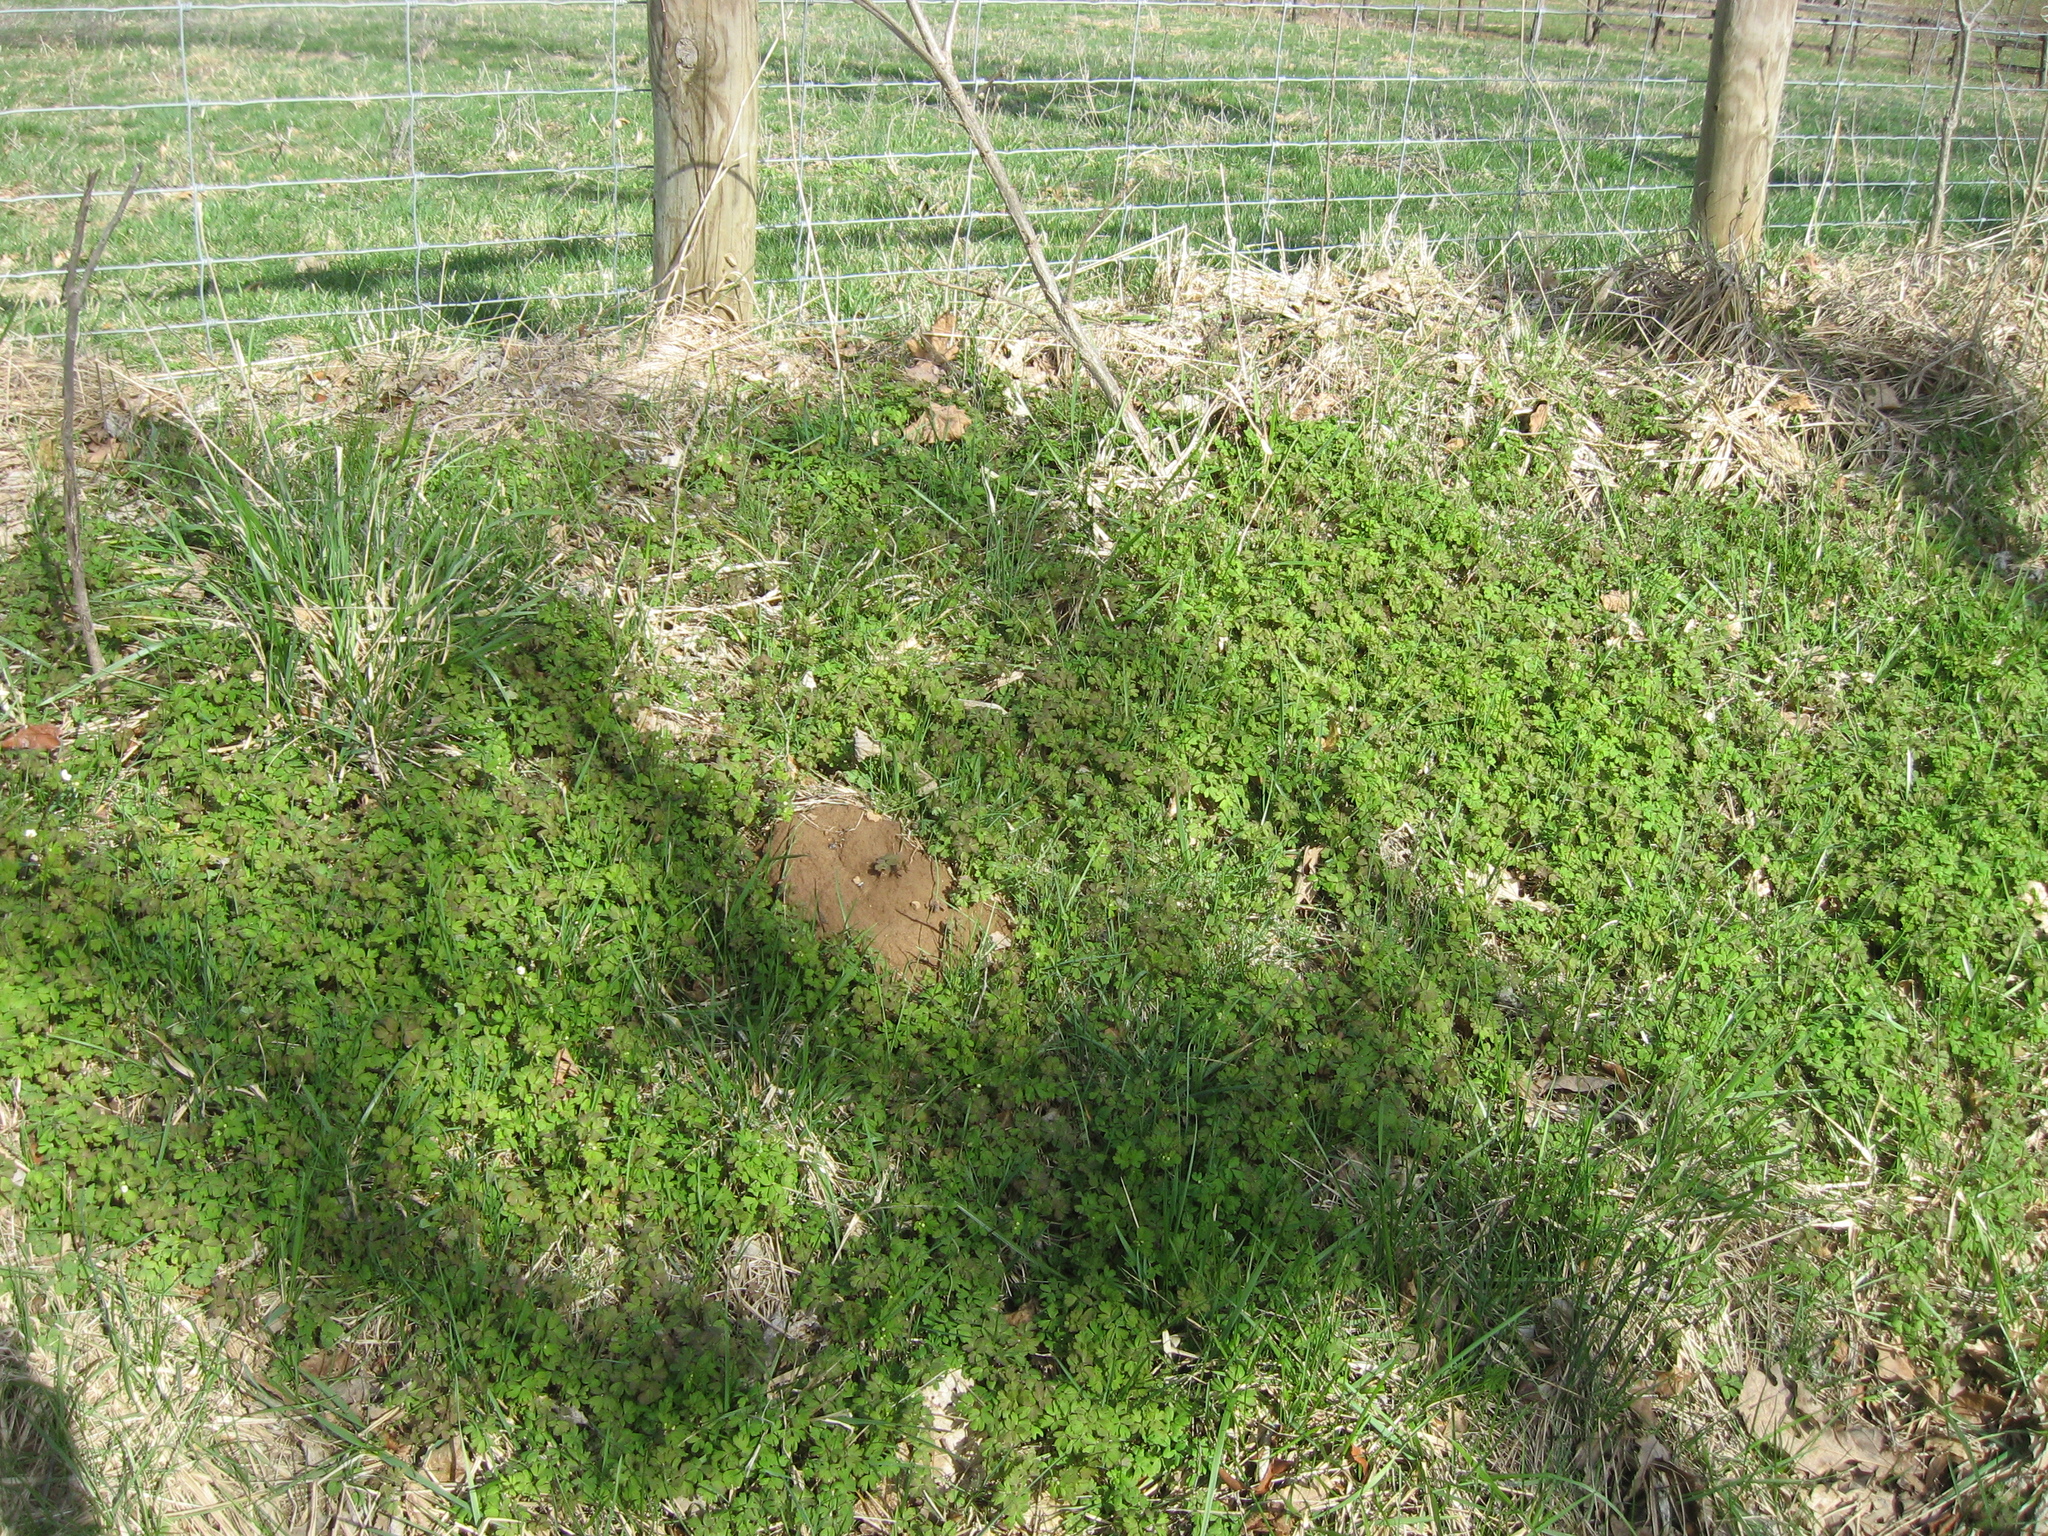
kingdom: Plantae
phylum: Tracheophyta
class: Magnoliopsida
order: Ranunculales
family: Ranunculaceae
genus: Enemion
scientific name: Enemion biternatum
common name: Eastern false rue-anemone
